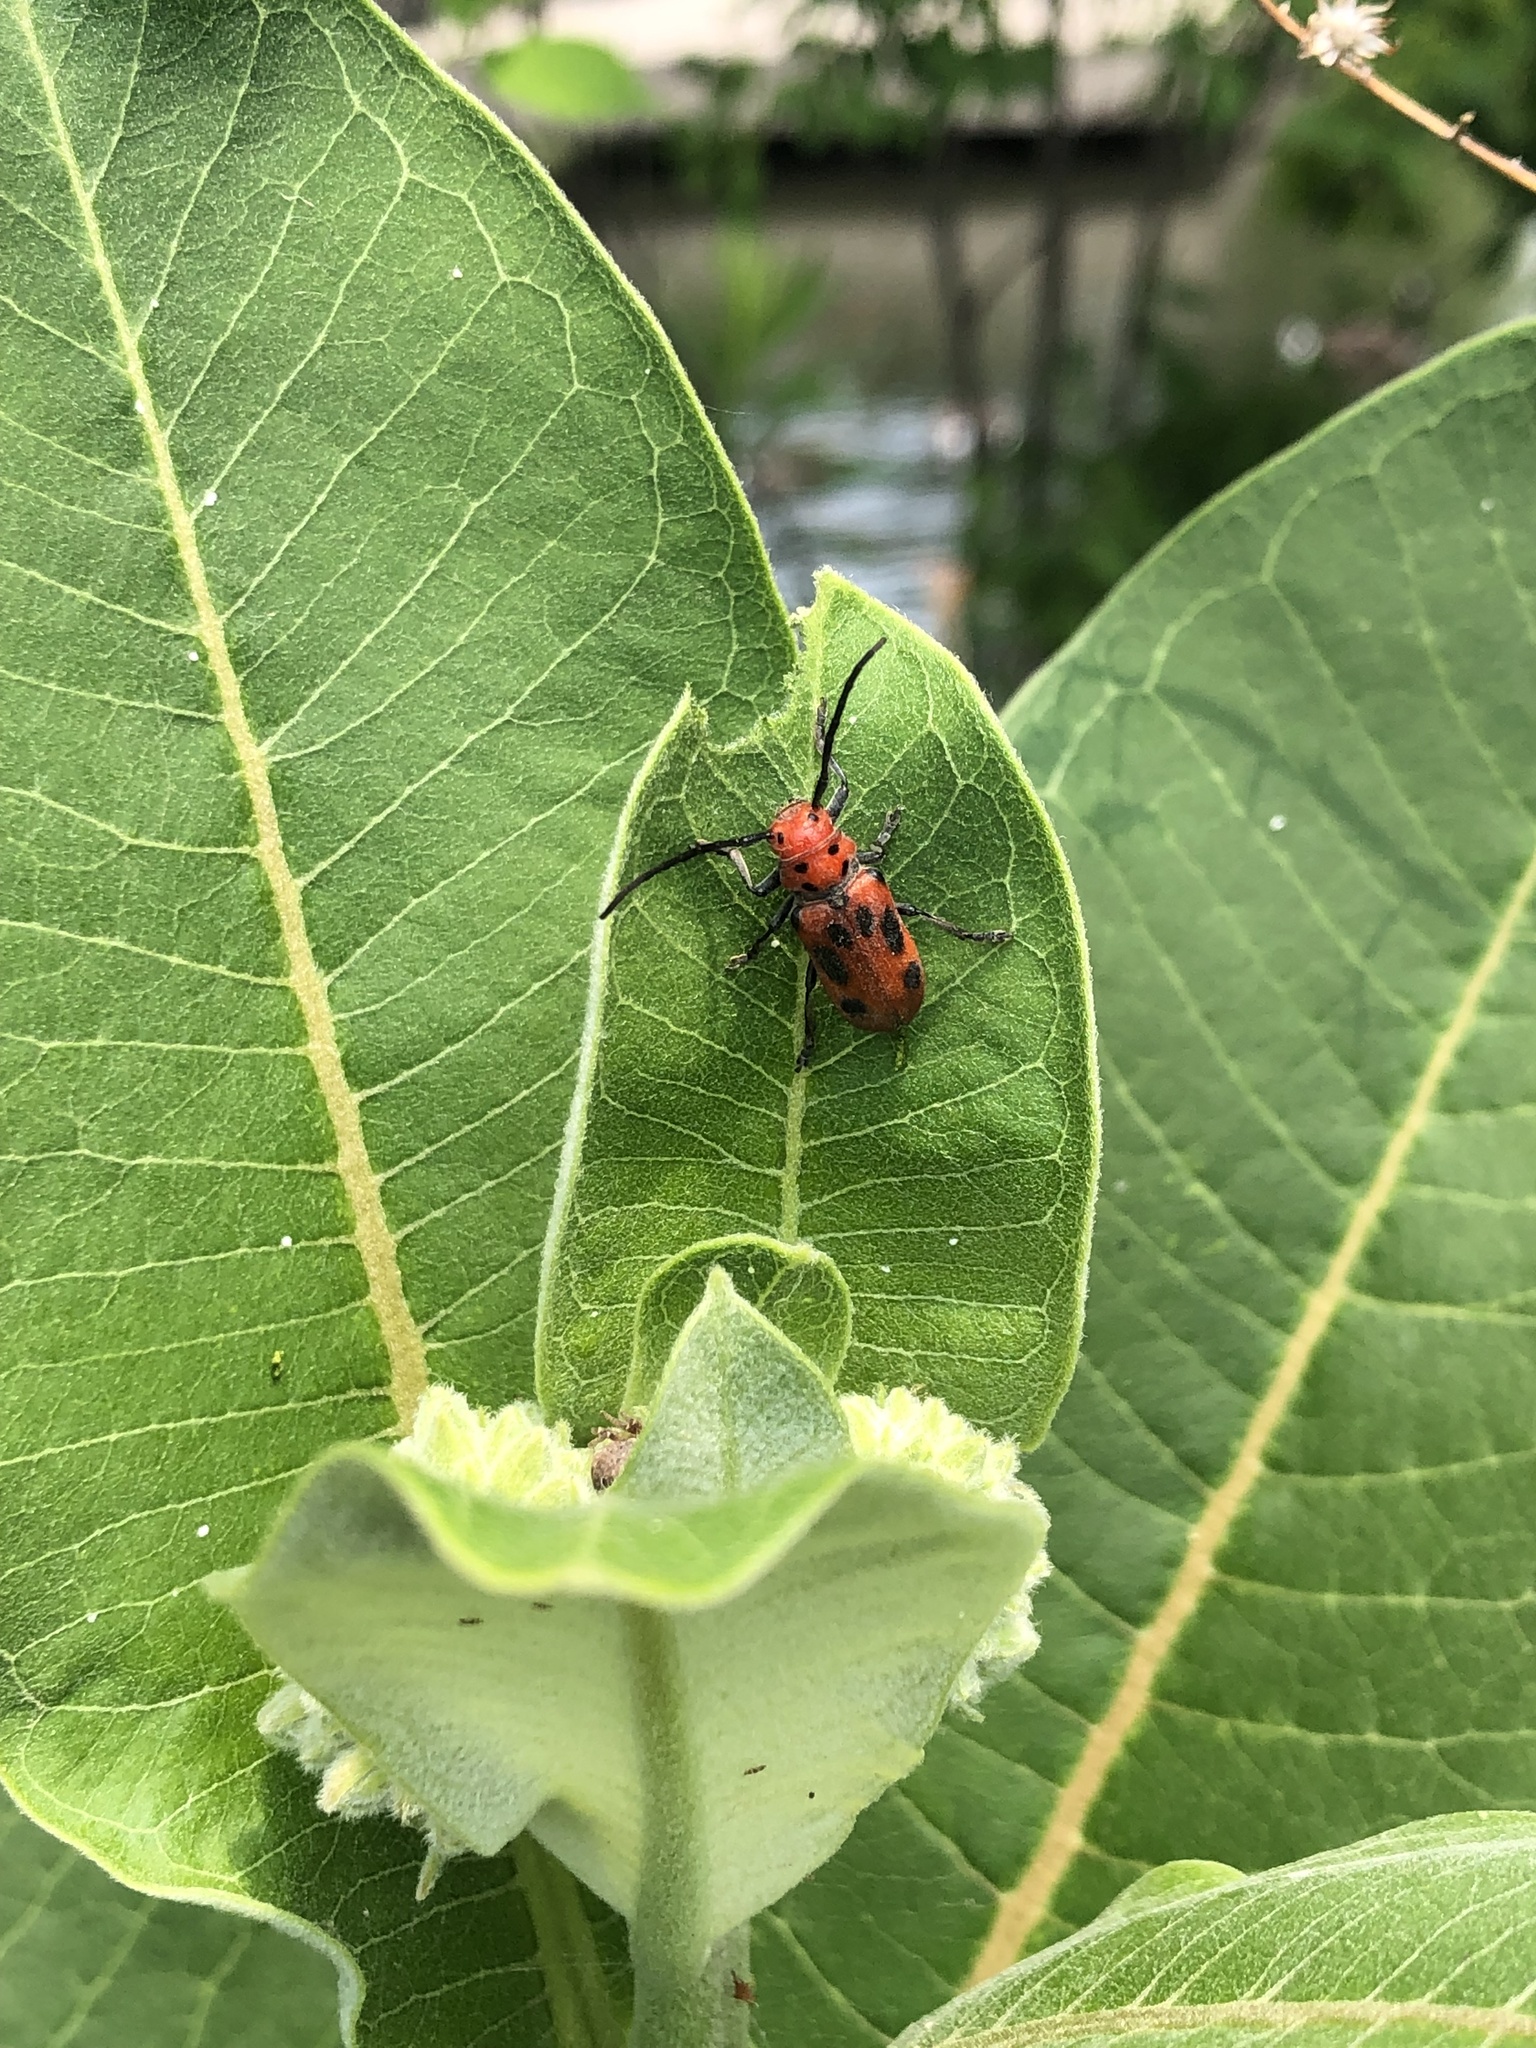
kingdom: Animalia
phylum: Arthropoda
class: Insecta
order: Coleoptera
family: Cerambycidae
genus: Tetraopes
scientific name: Tetraopes tetrophthalmus
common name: Red milkweed beetle
